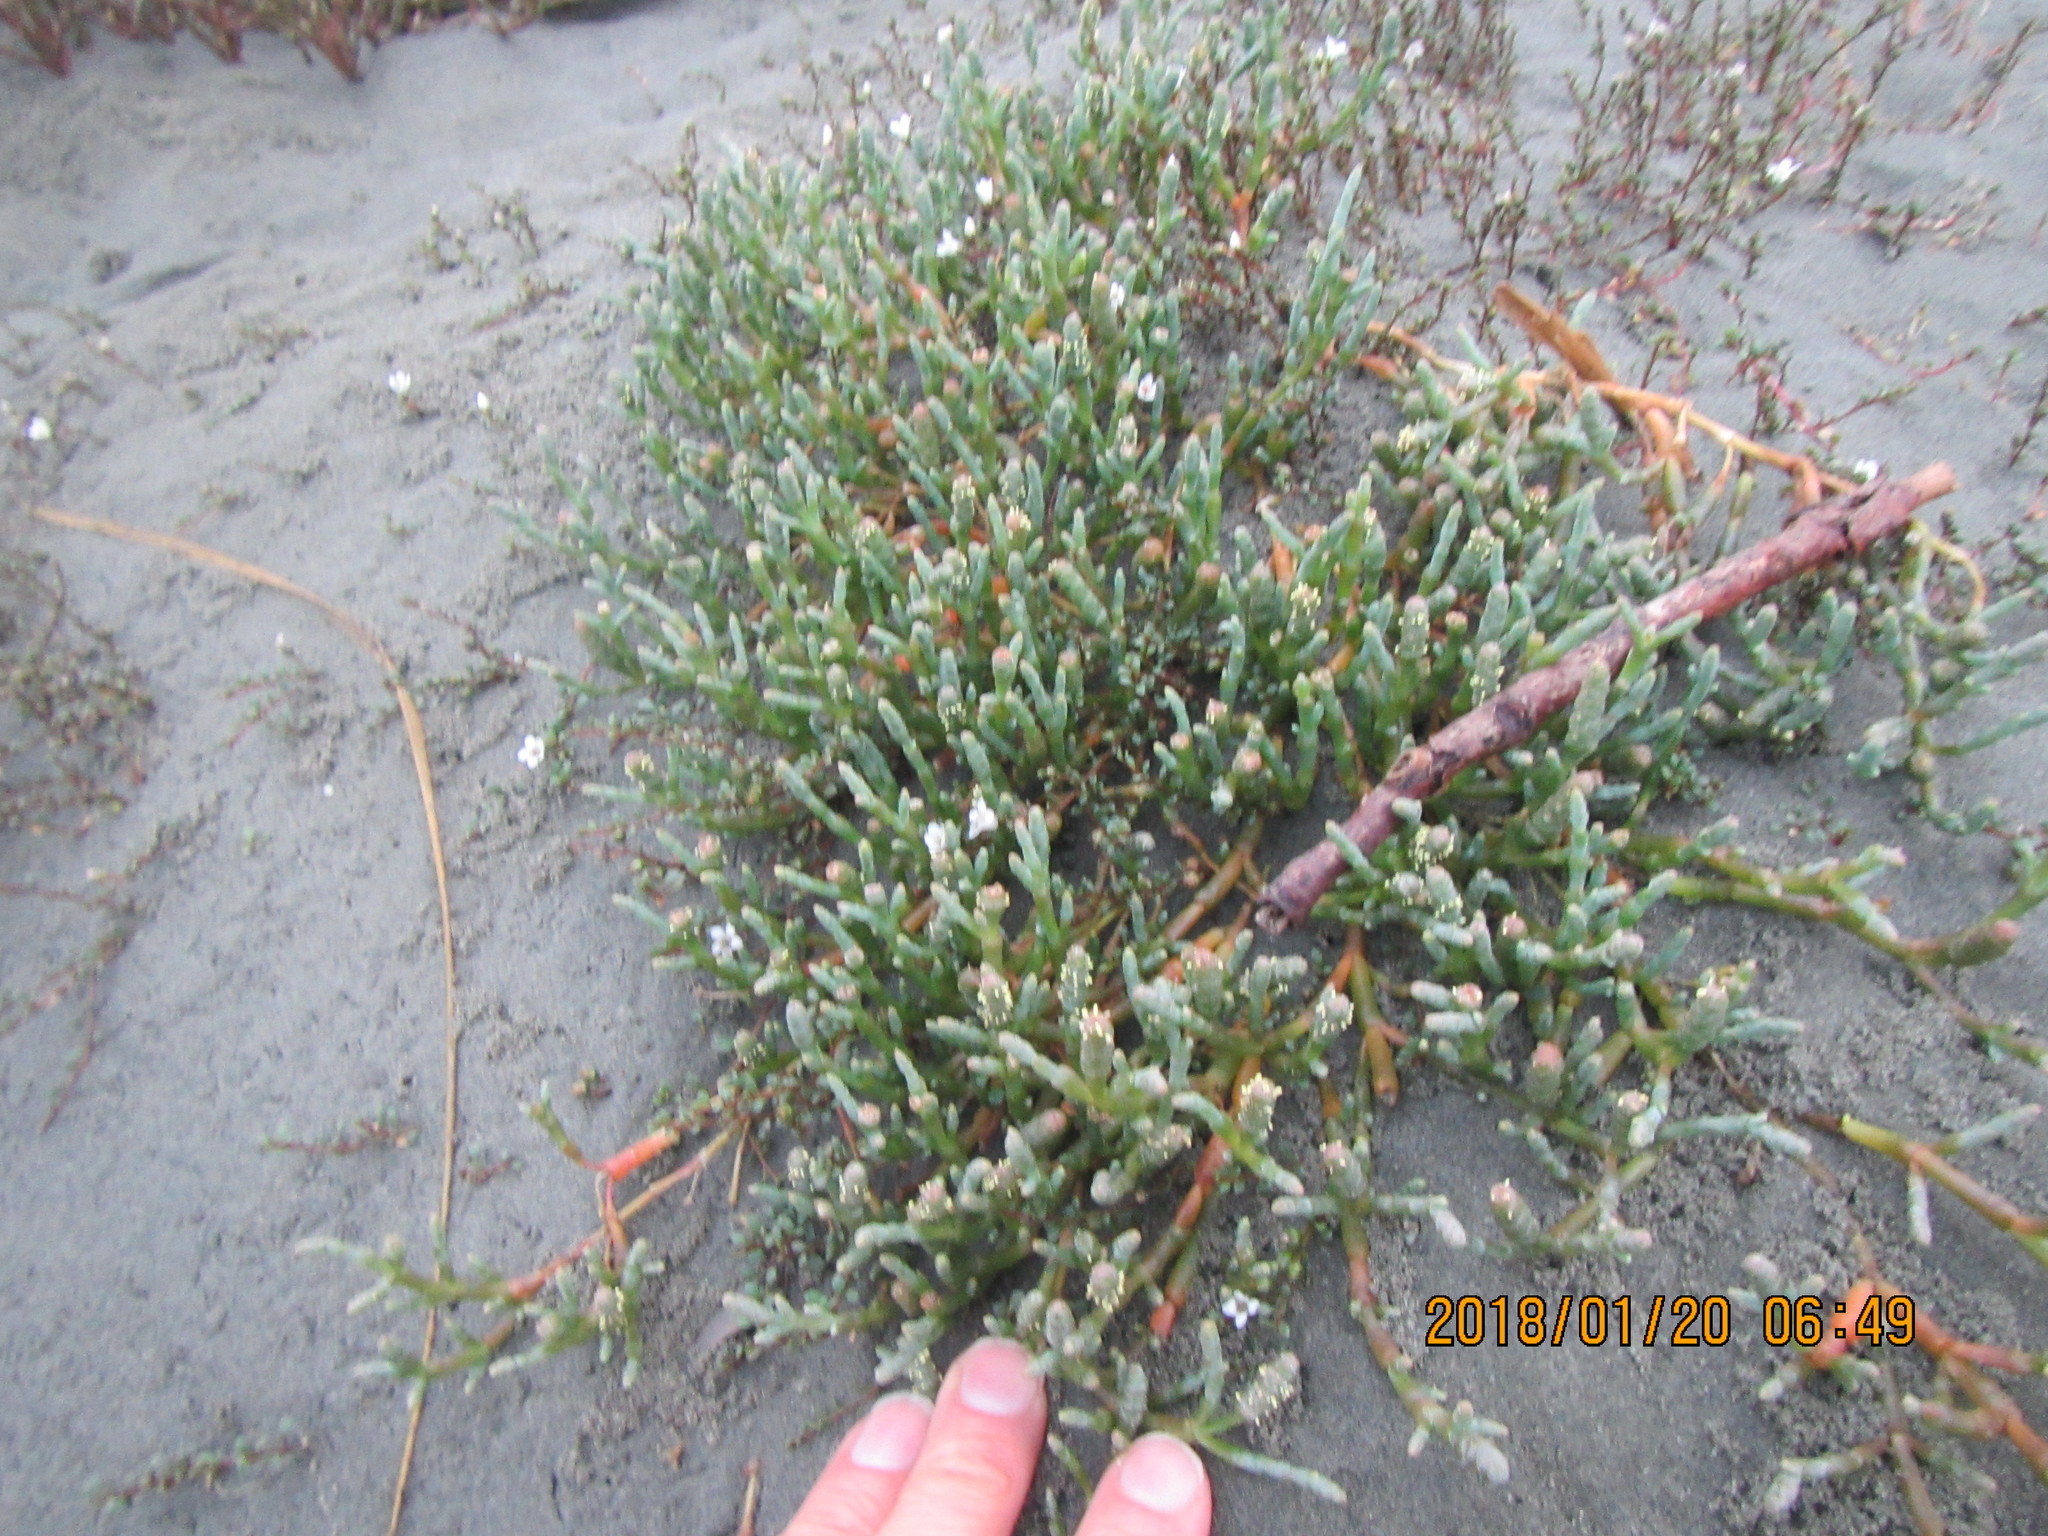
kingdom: Plantae
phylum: Tracheophyta
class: Magnoliopsida
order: Caryophyllales
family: Amaranthaceae
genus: Salicornia
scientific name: Salicornia quinqueflora
